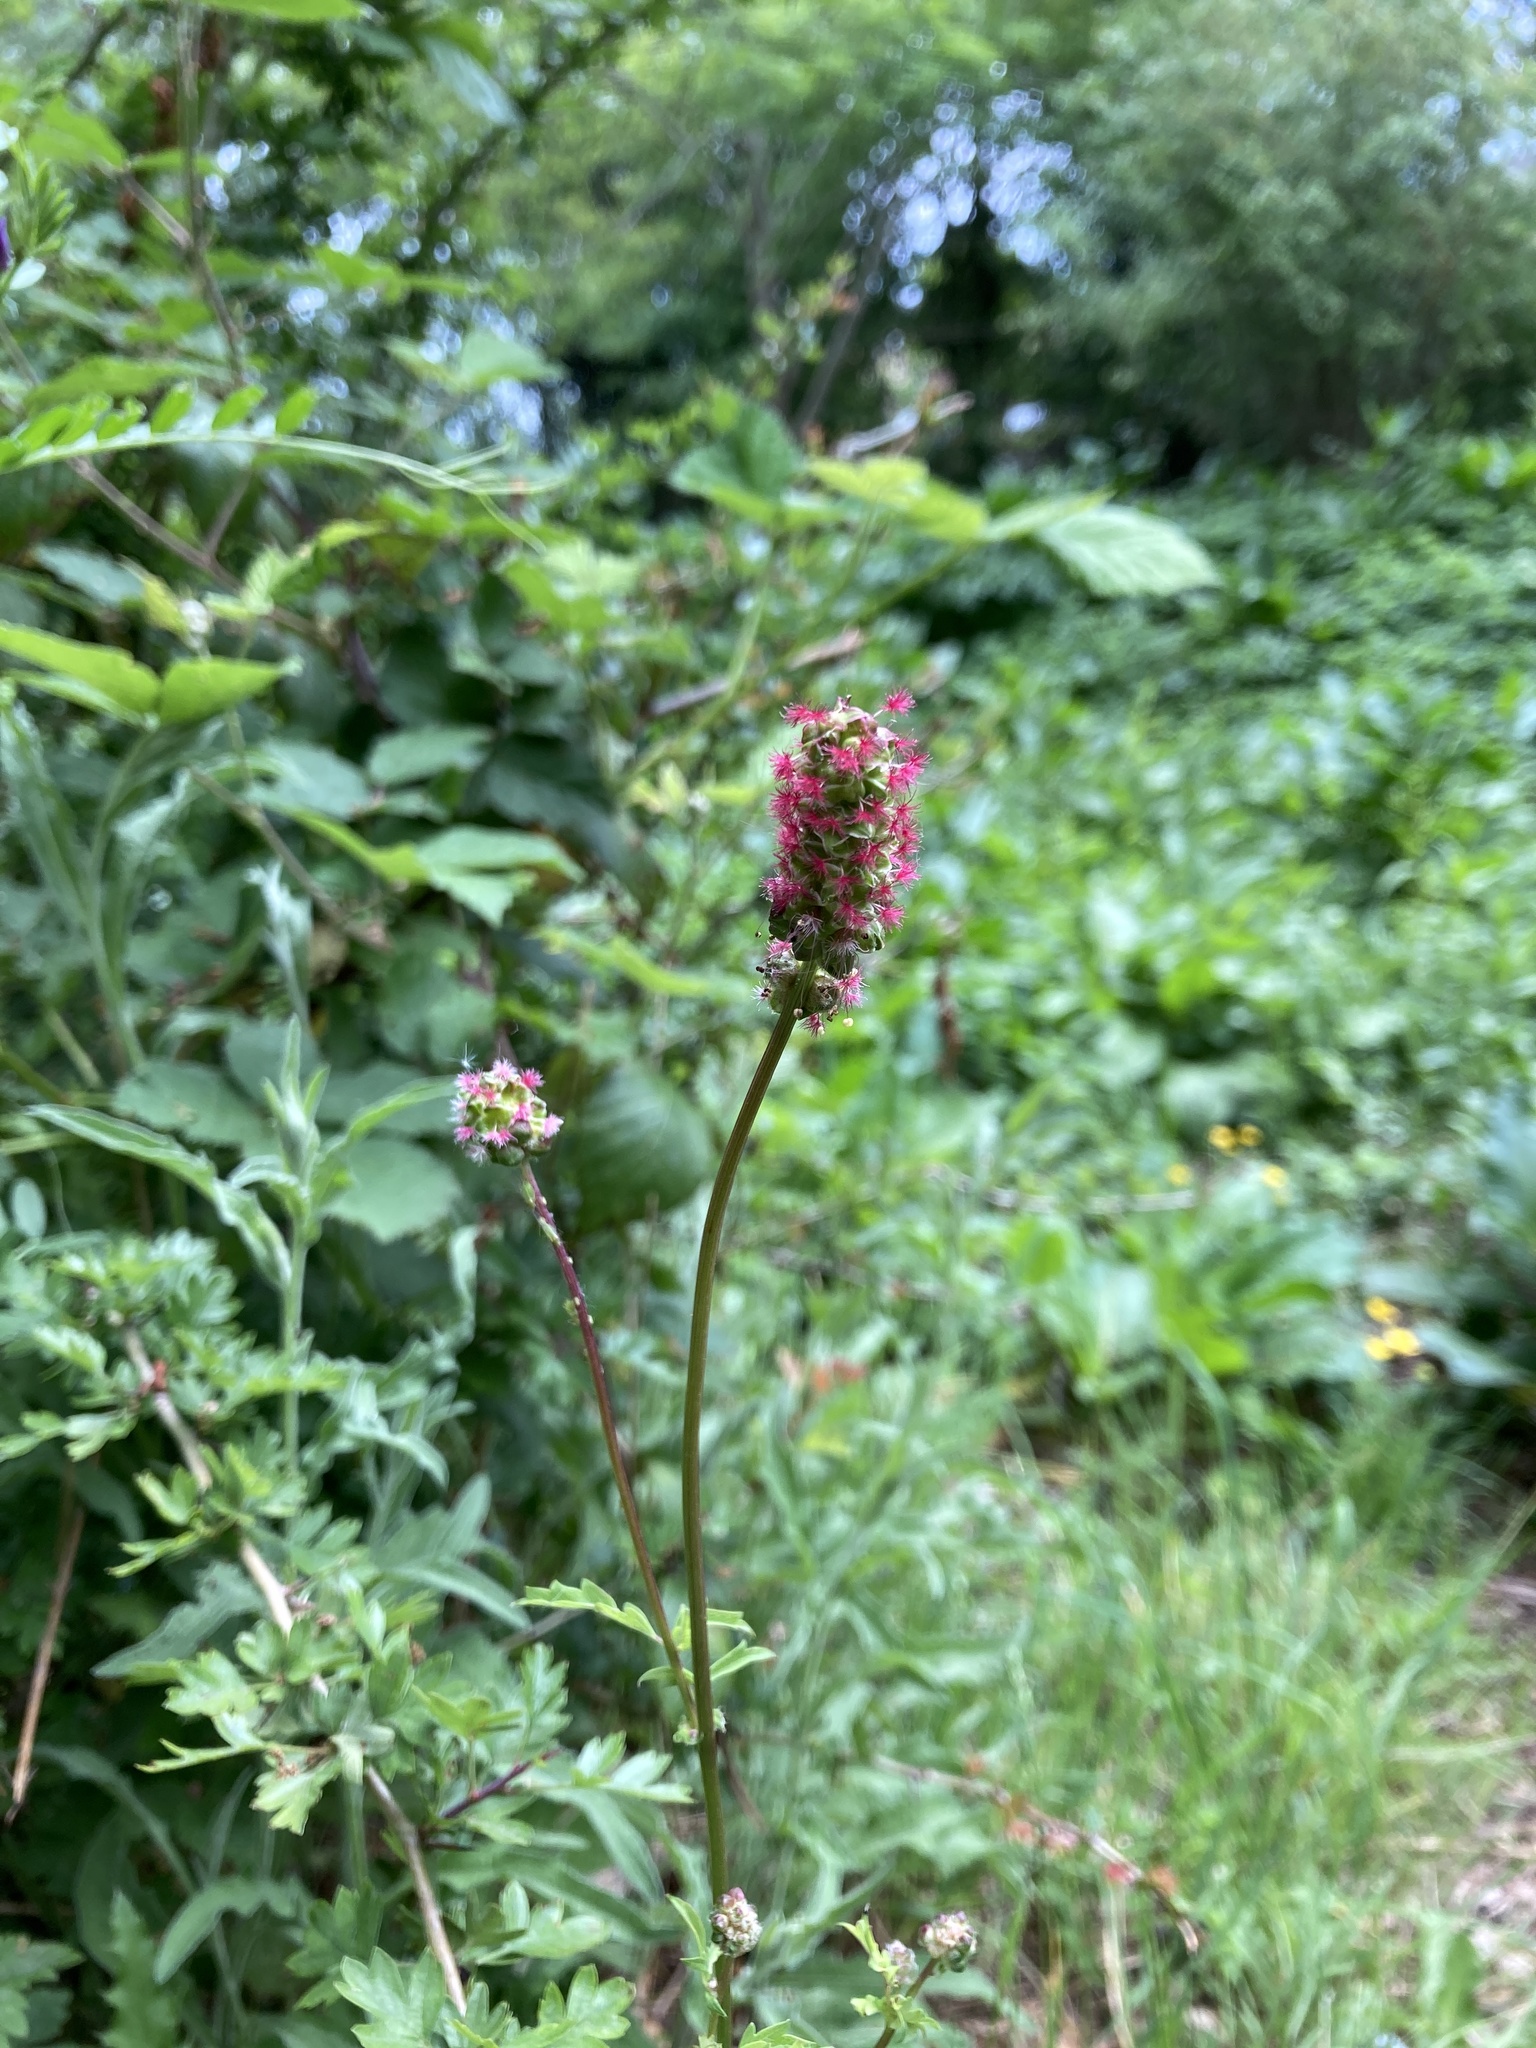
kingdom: Plantae
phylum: Tracheophyta
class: Magnoliopsida
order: Rosales
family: Rosaceae
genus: Sanguisorba
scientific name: Sanguisorba officinalis
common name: Great burnet
